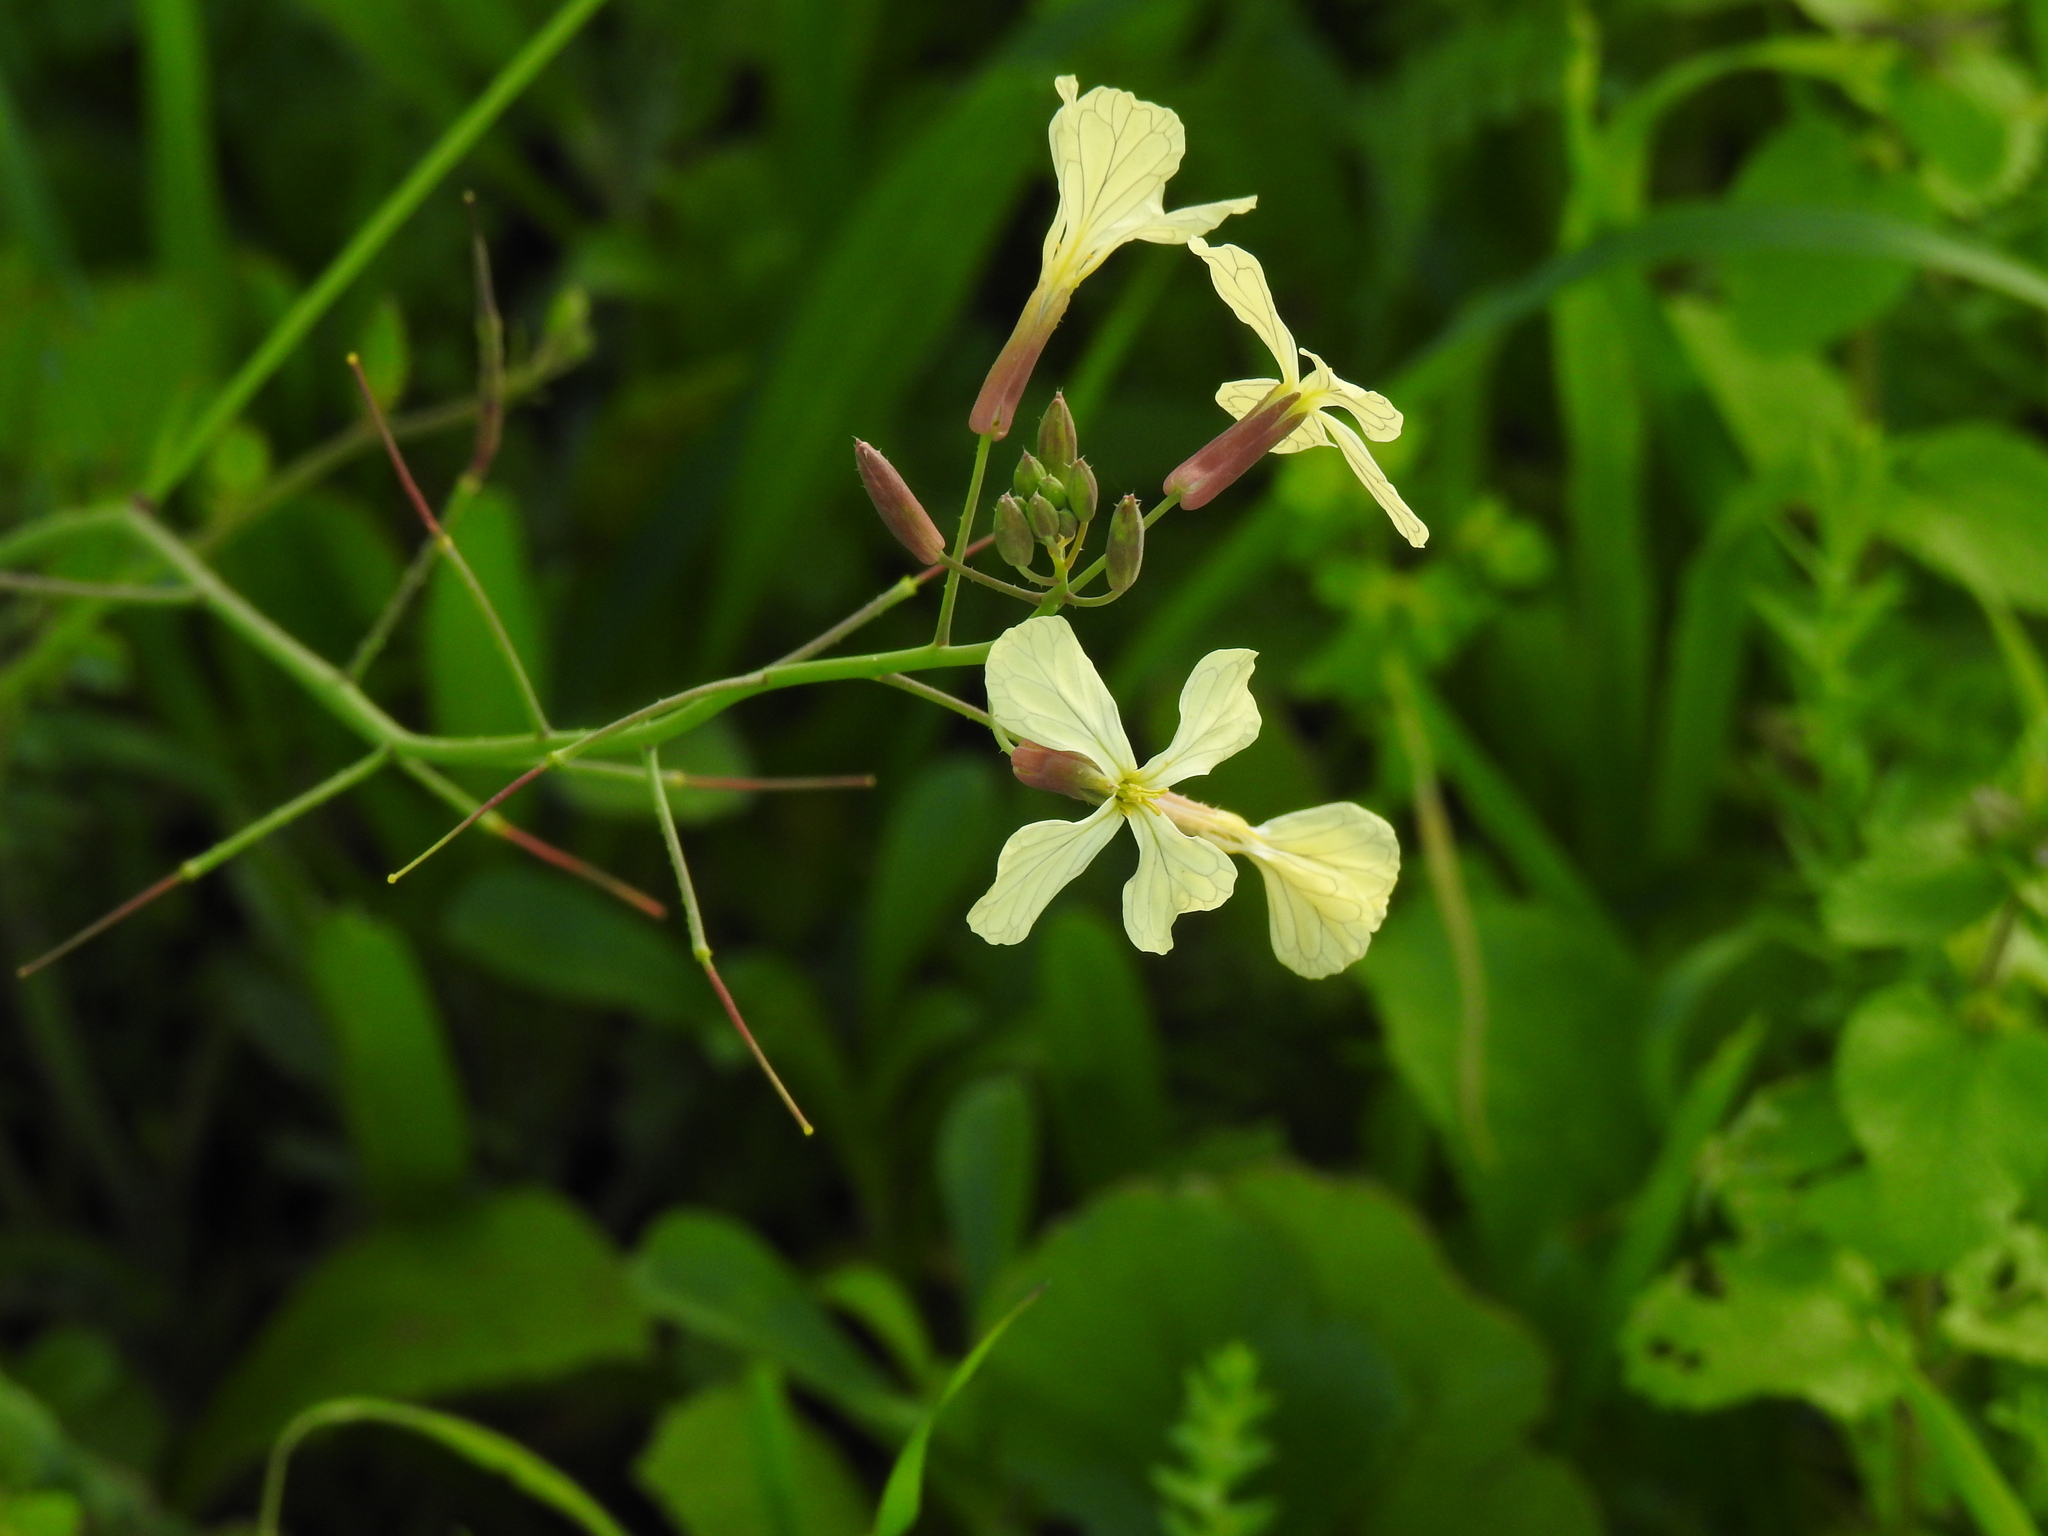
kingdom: Plantae
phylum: Tracheophyta
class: Magnoliopsida
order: Brassicales
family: Brassicaceae
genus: Raphanus
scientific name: Raphanus raphanistrum
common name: Wild radish
